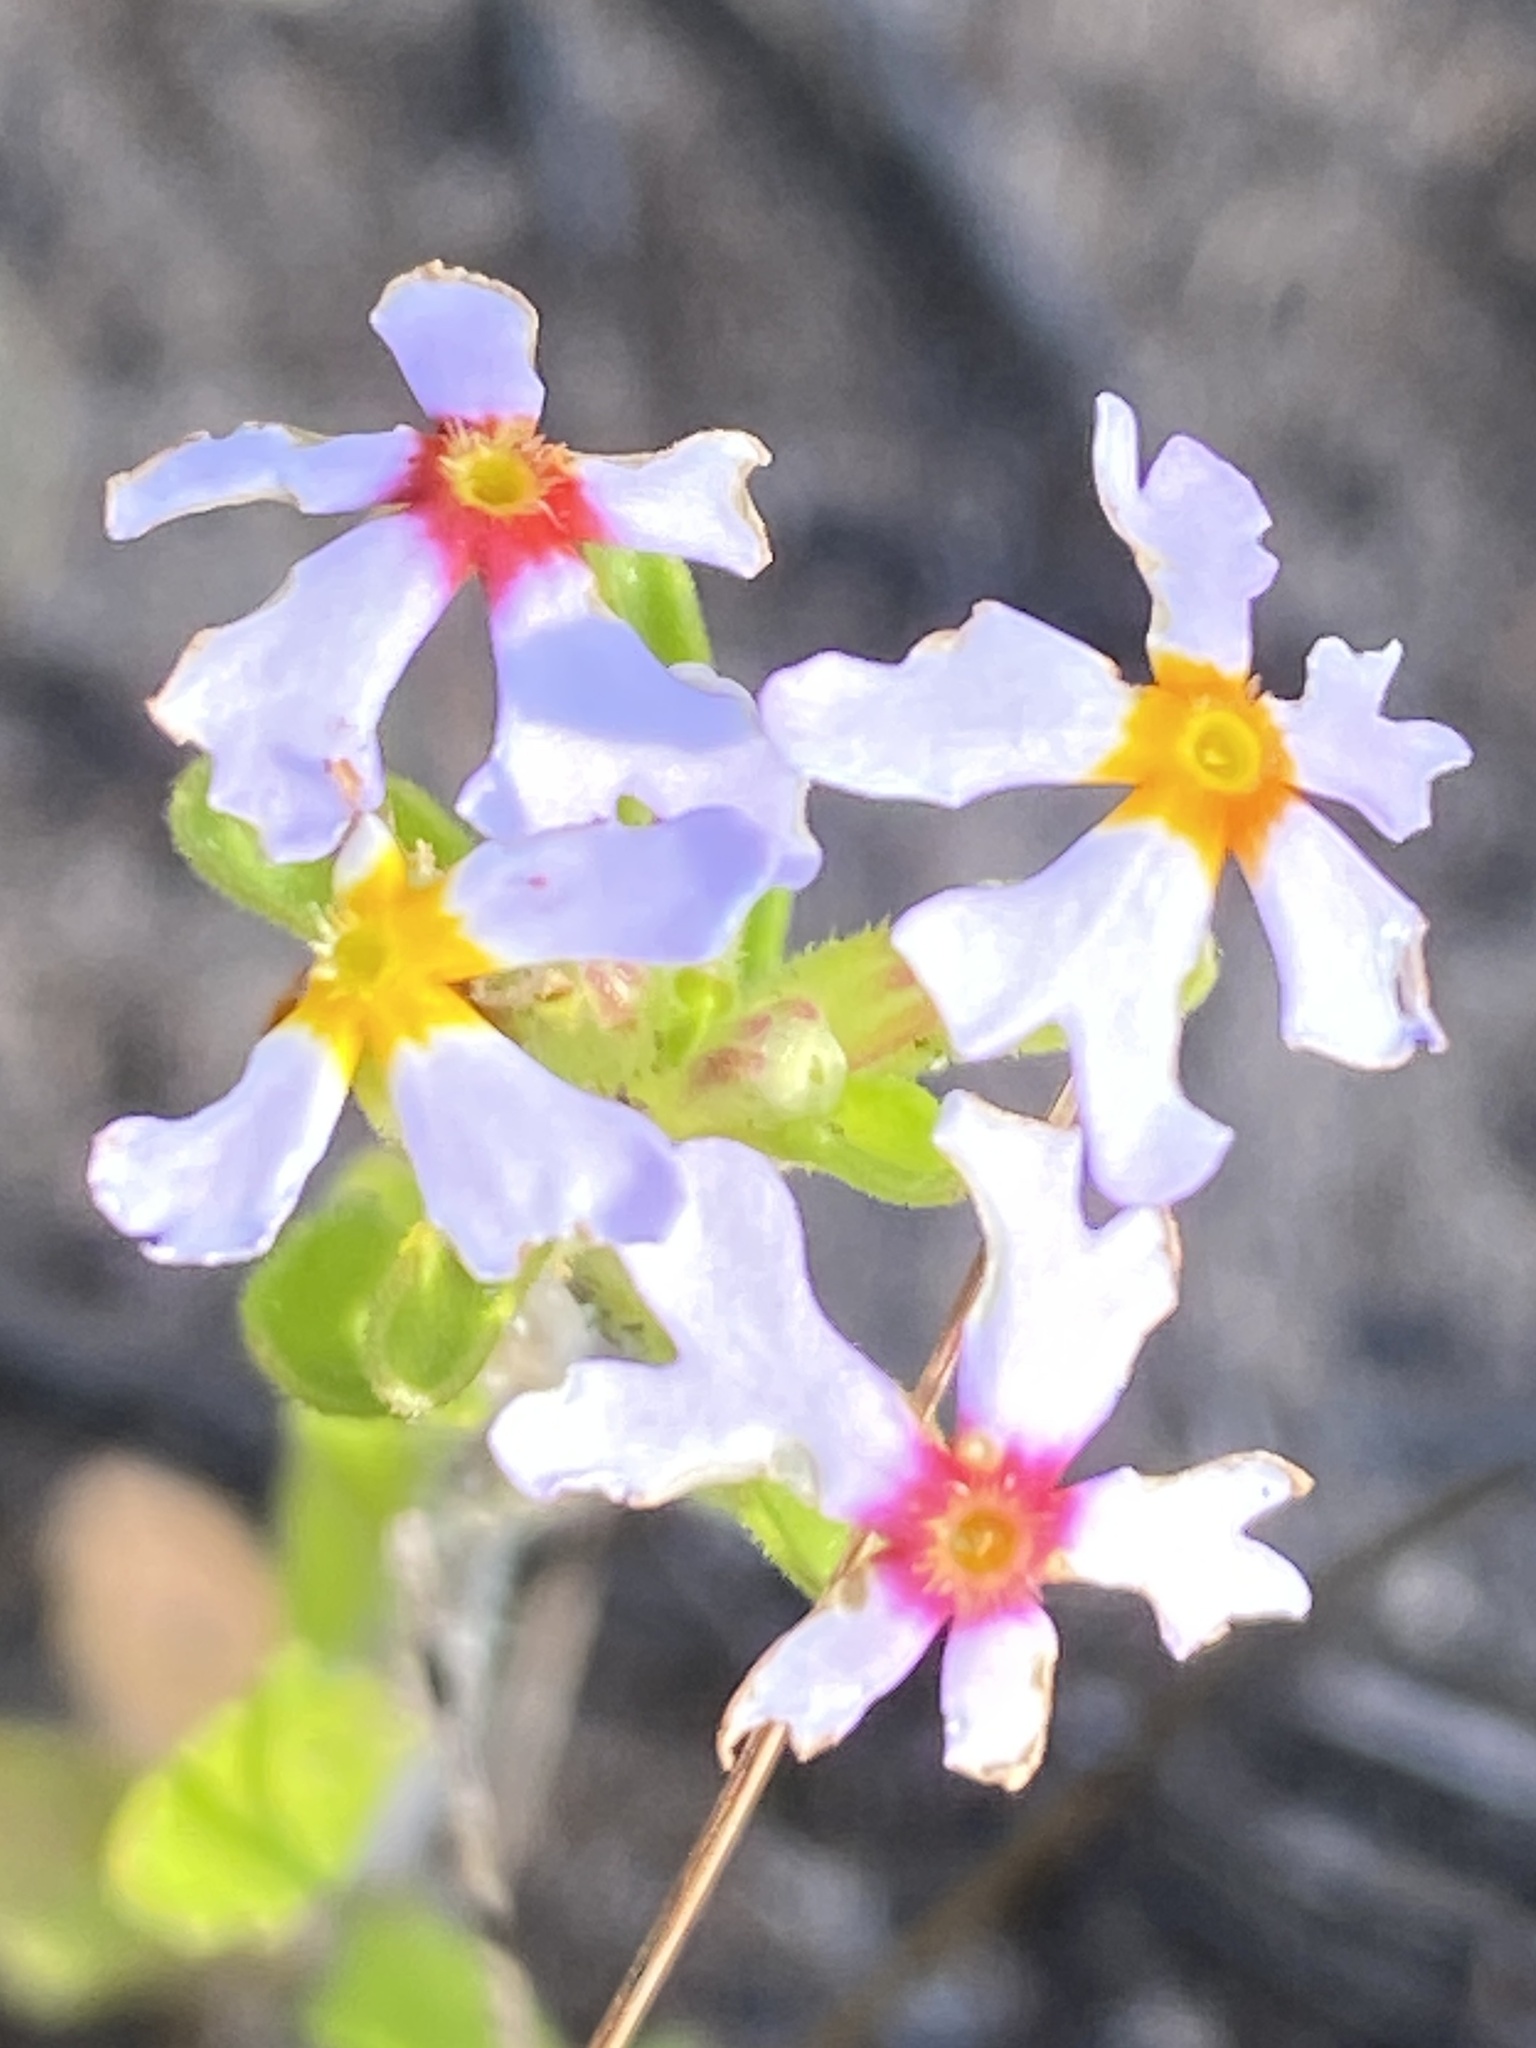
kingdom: Plantae
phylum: Tracheophyta
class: Magnoliopsida
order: Lamiales
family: Scrophulariaceae
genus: Zaluzianskya
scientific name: Zaluzianskya villosa
